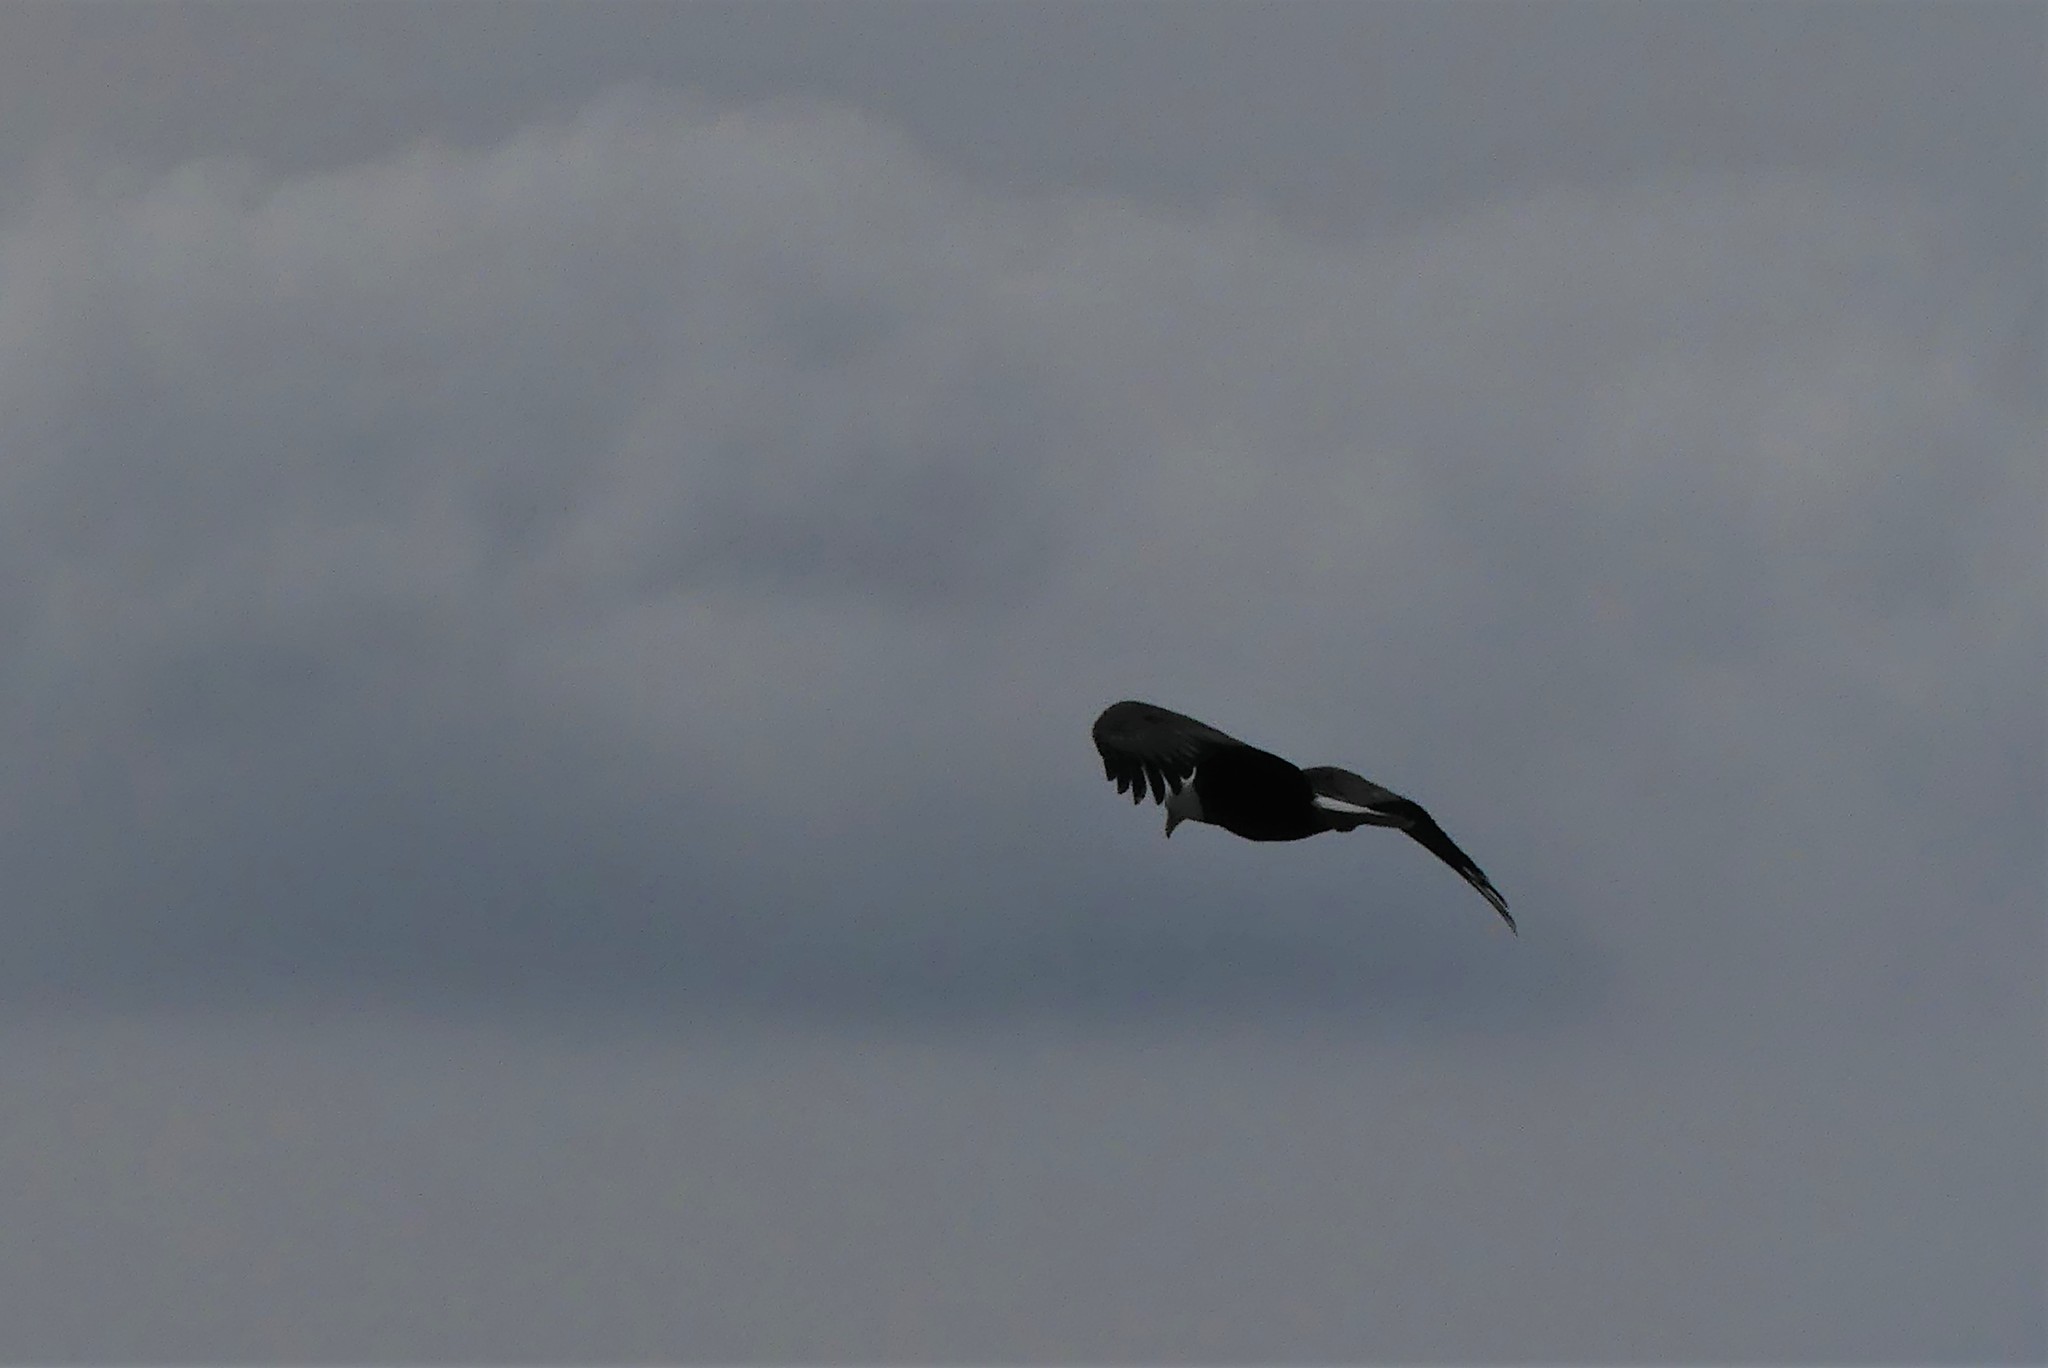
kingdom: Animalia
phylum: Chordata
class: Aves
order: Accipitriformes
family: Accipitridae
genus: Haliaeetus
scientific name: Haliaeetus leucocephalus
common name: Bald eagle
